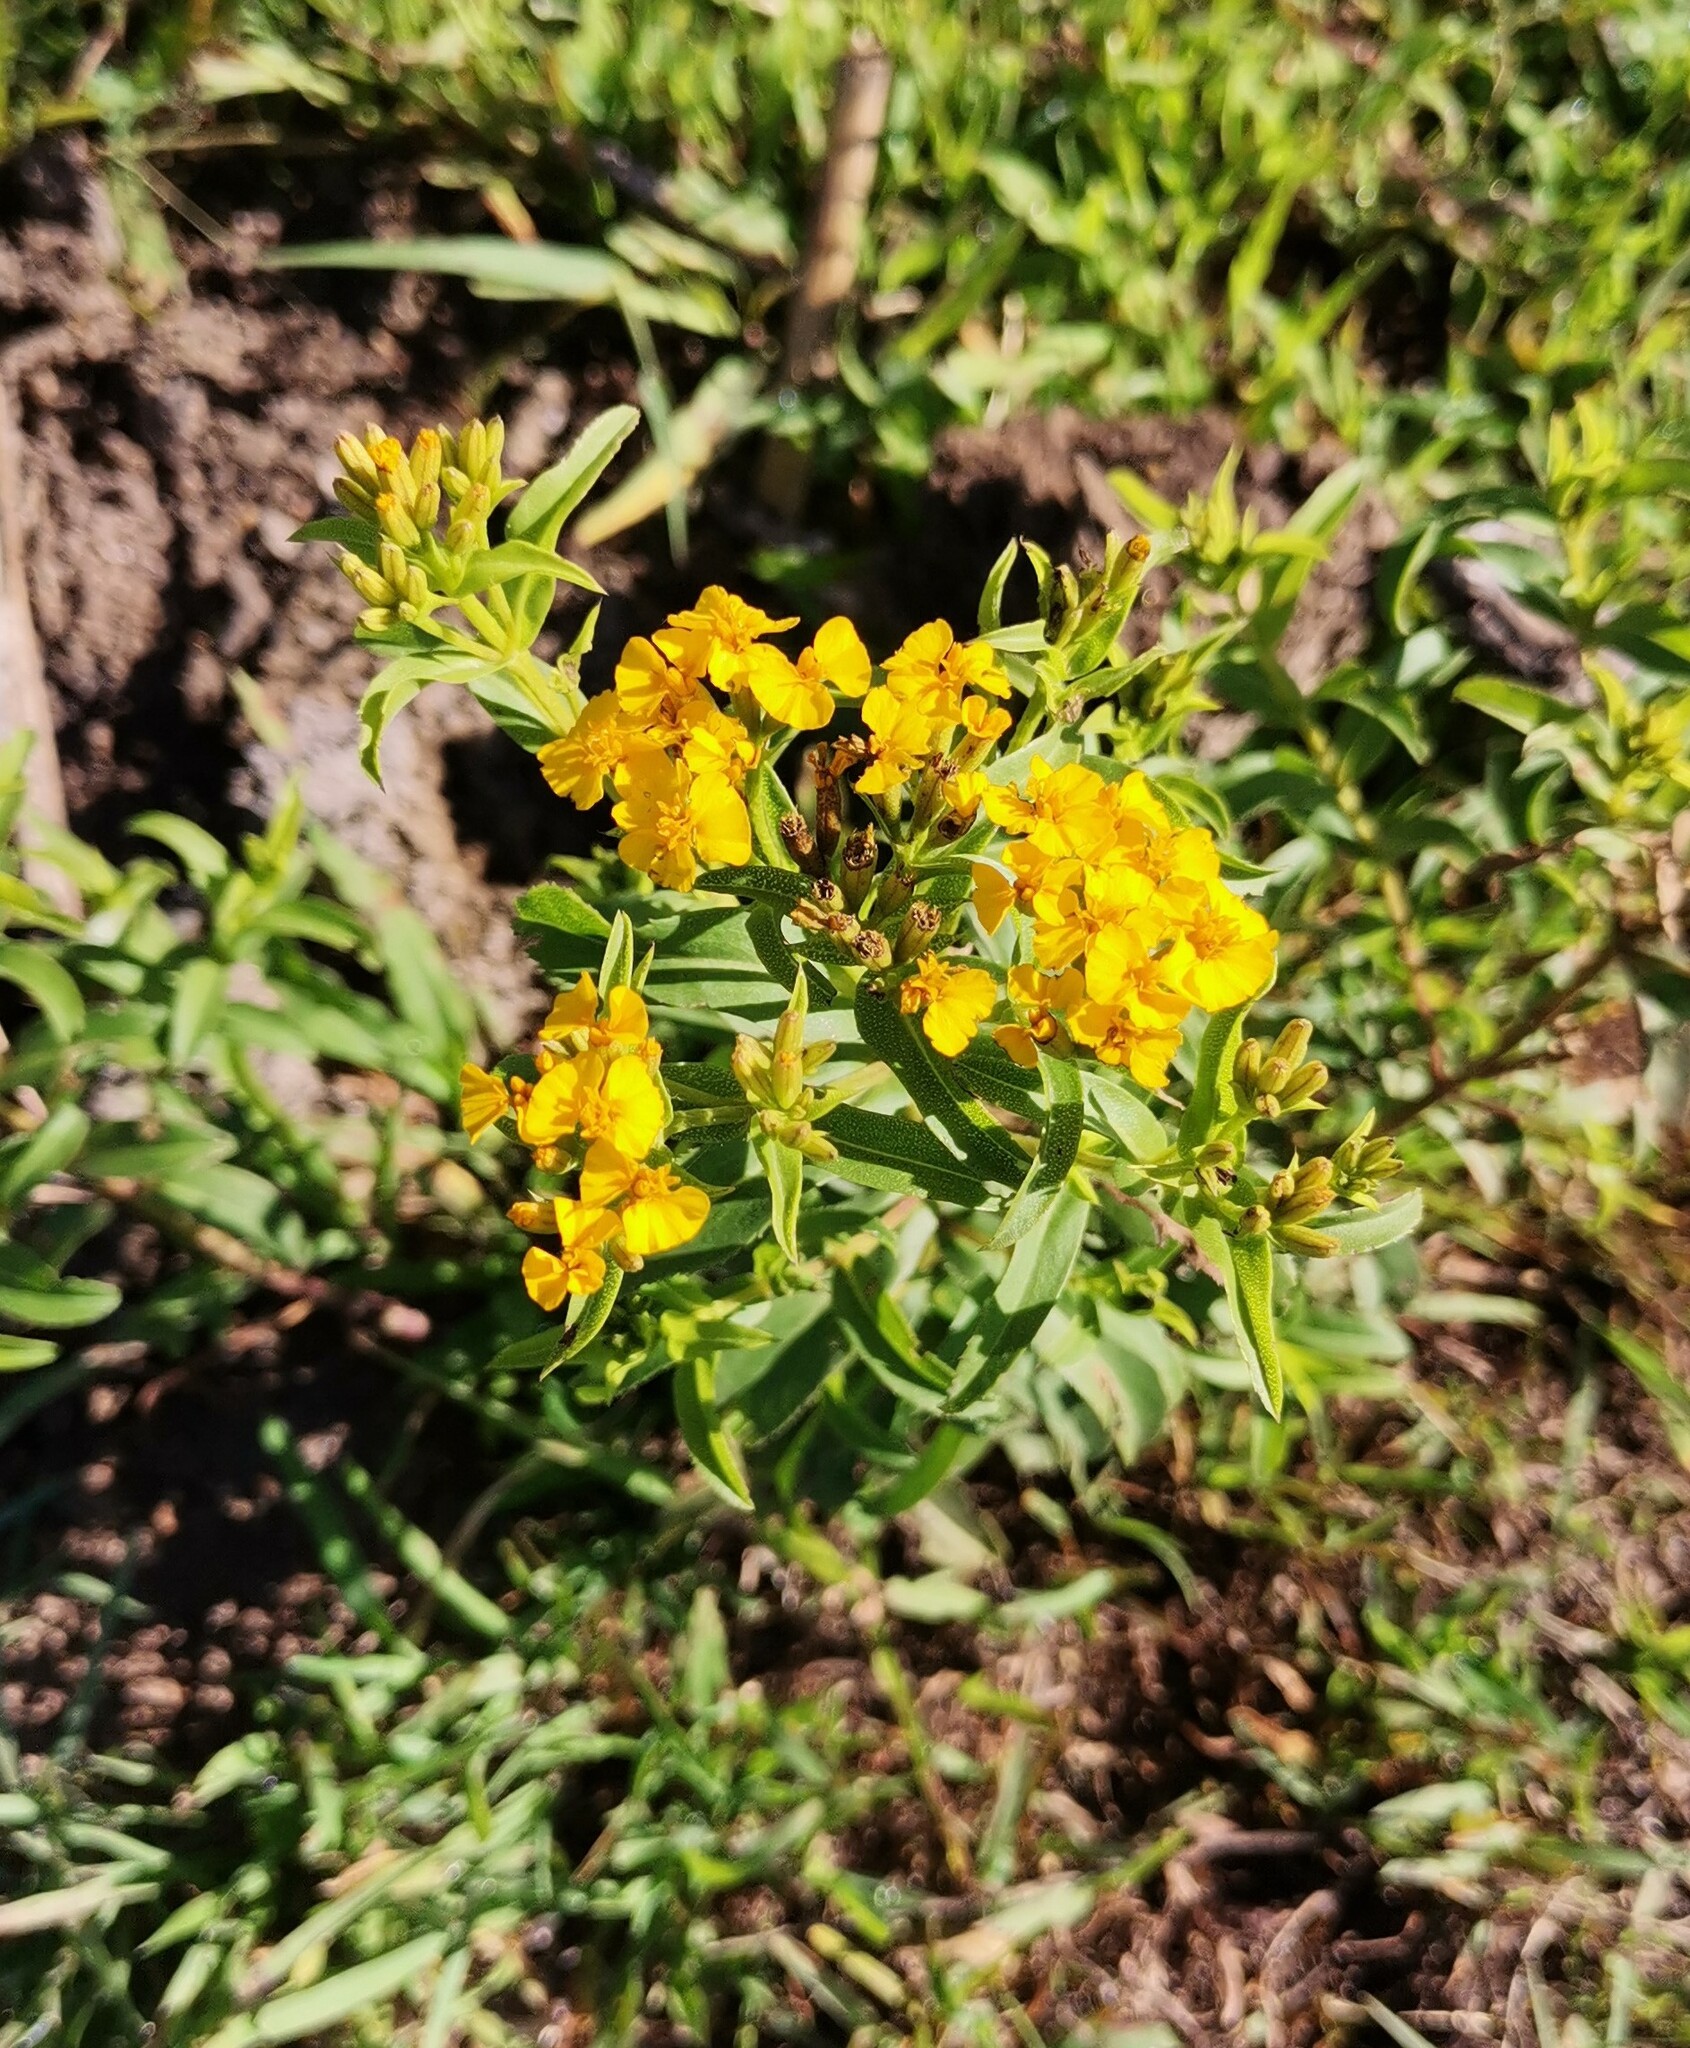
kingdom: Plantae
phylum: Tracheophyta
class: Magnoliopsida
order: Asterales
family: Asteraceae
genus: Tagetes
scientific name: Tagetes lucida
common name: Sweetscented marigold
